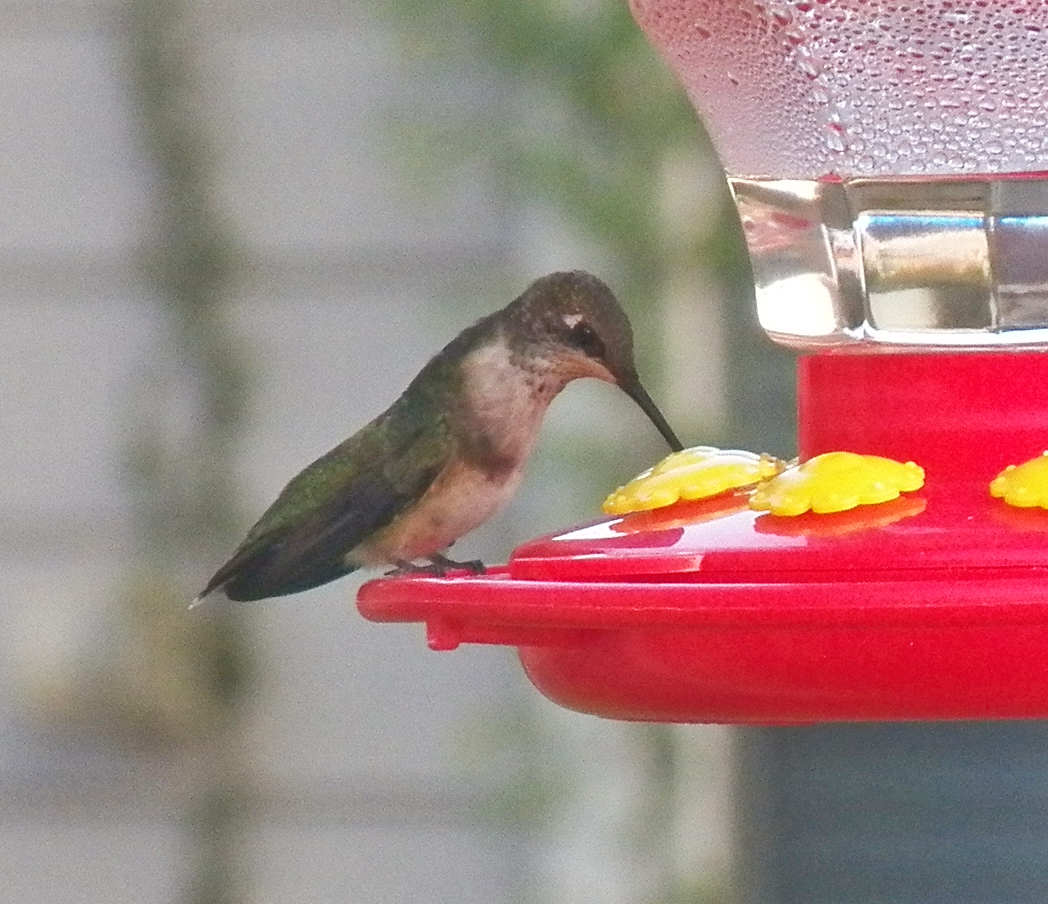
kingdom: Animalia
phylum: Chordata
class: Aves
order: Apodiformes
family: Trochilidae
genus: Archilochus
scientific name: Archilochus colubris
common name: Ruby-throated hummingbird
